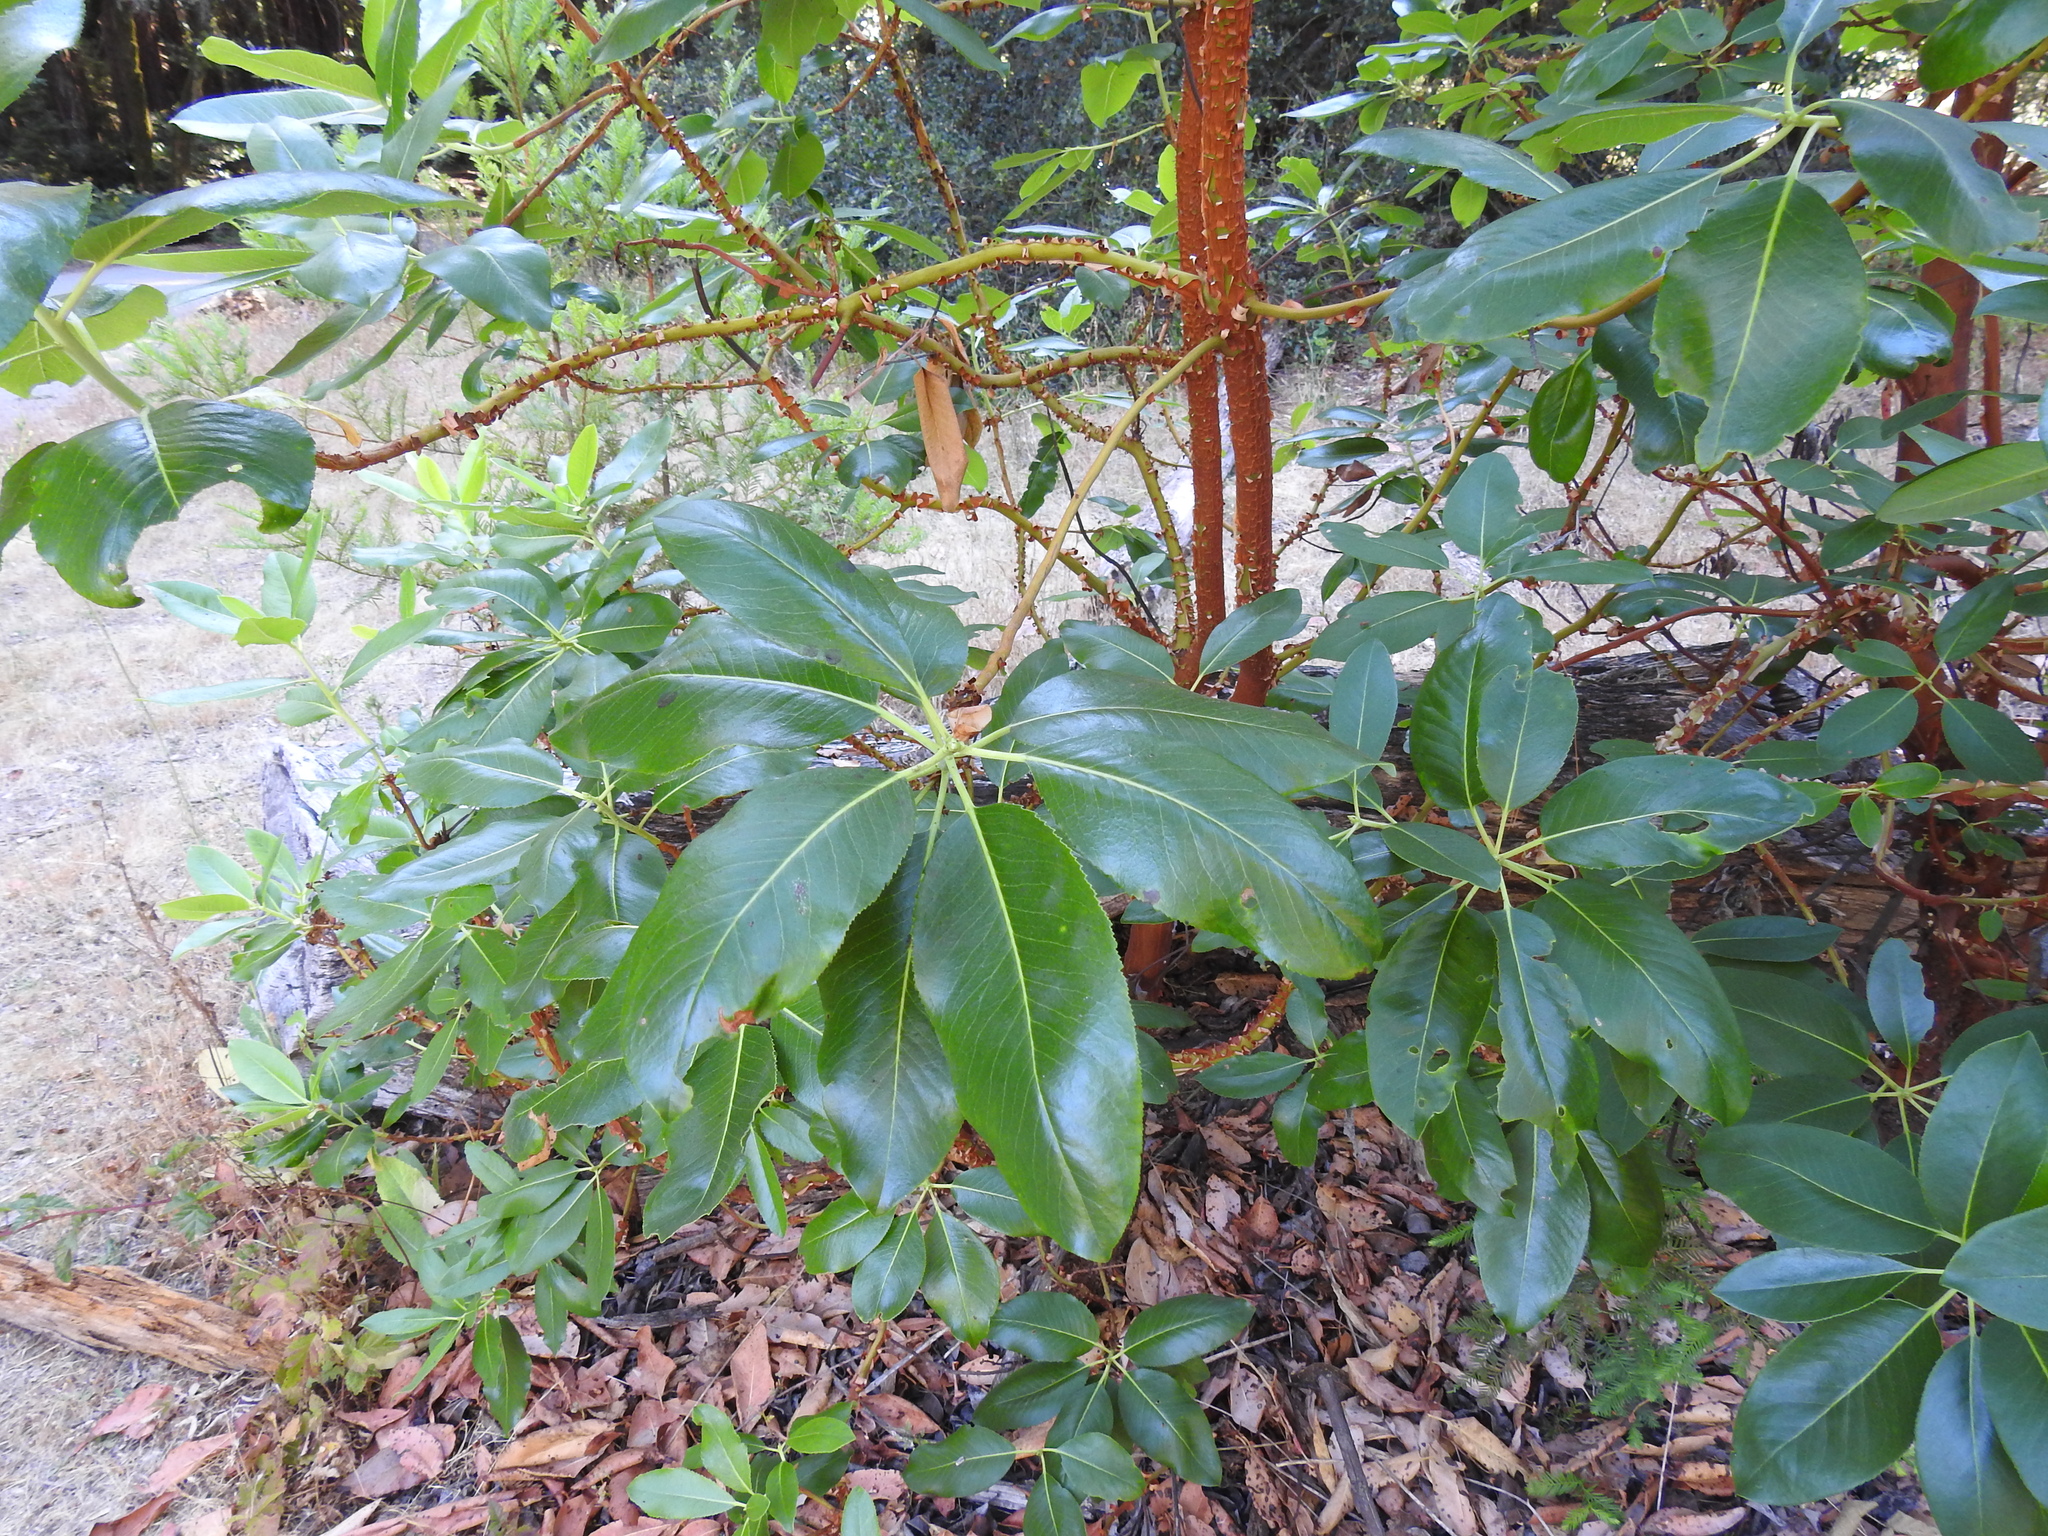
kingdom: Plantae
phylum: Tracheophyta
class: Magnoliopsida
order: Ericales
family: Ericaceae
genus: Arbutus
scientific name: Arbutus menziesii
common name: Pacific madrone
